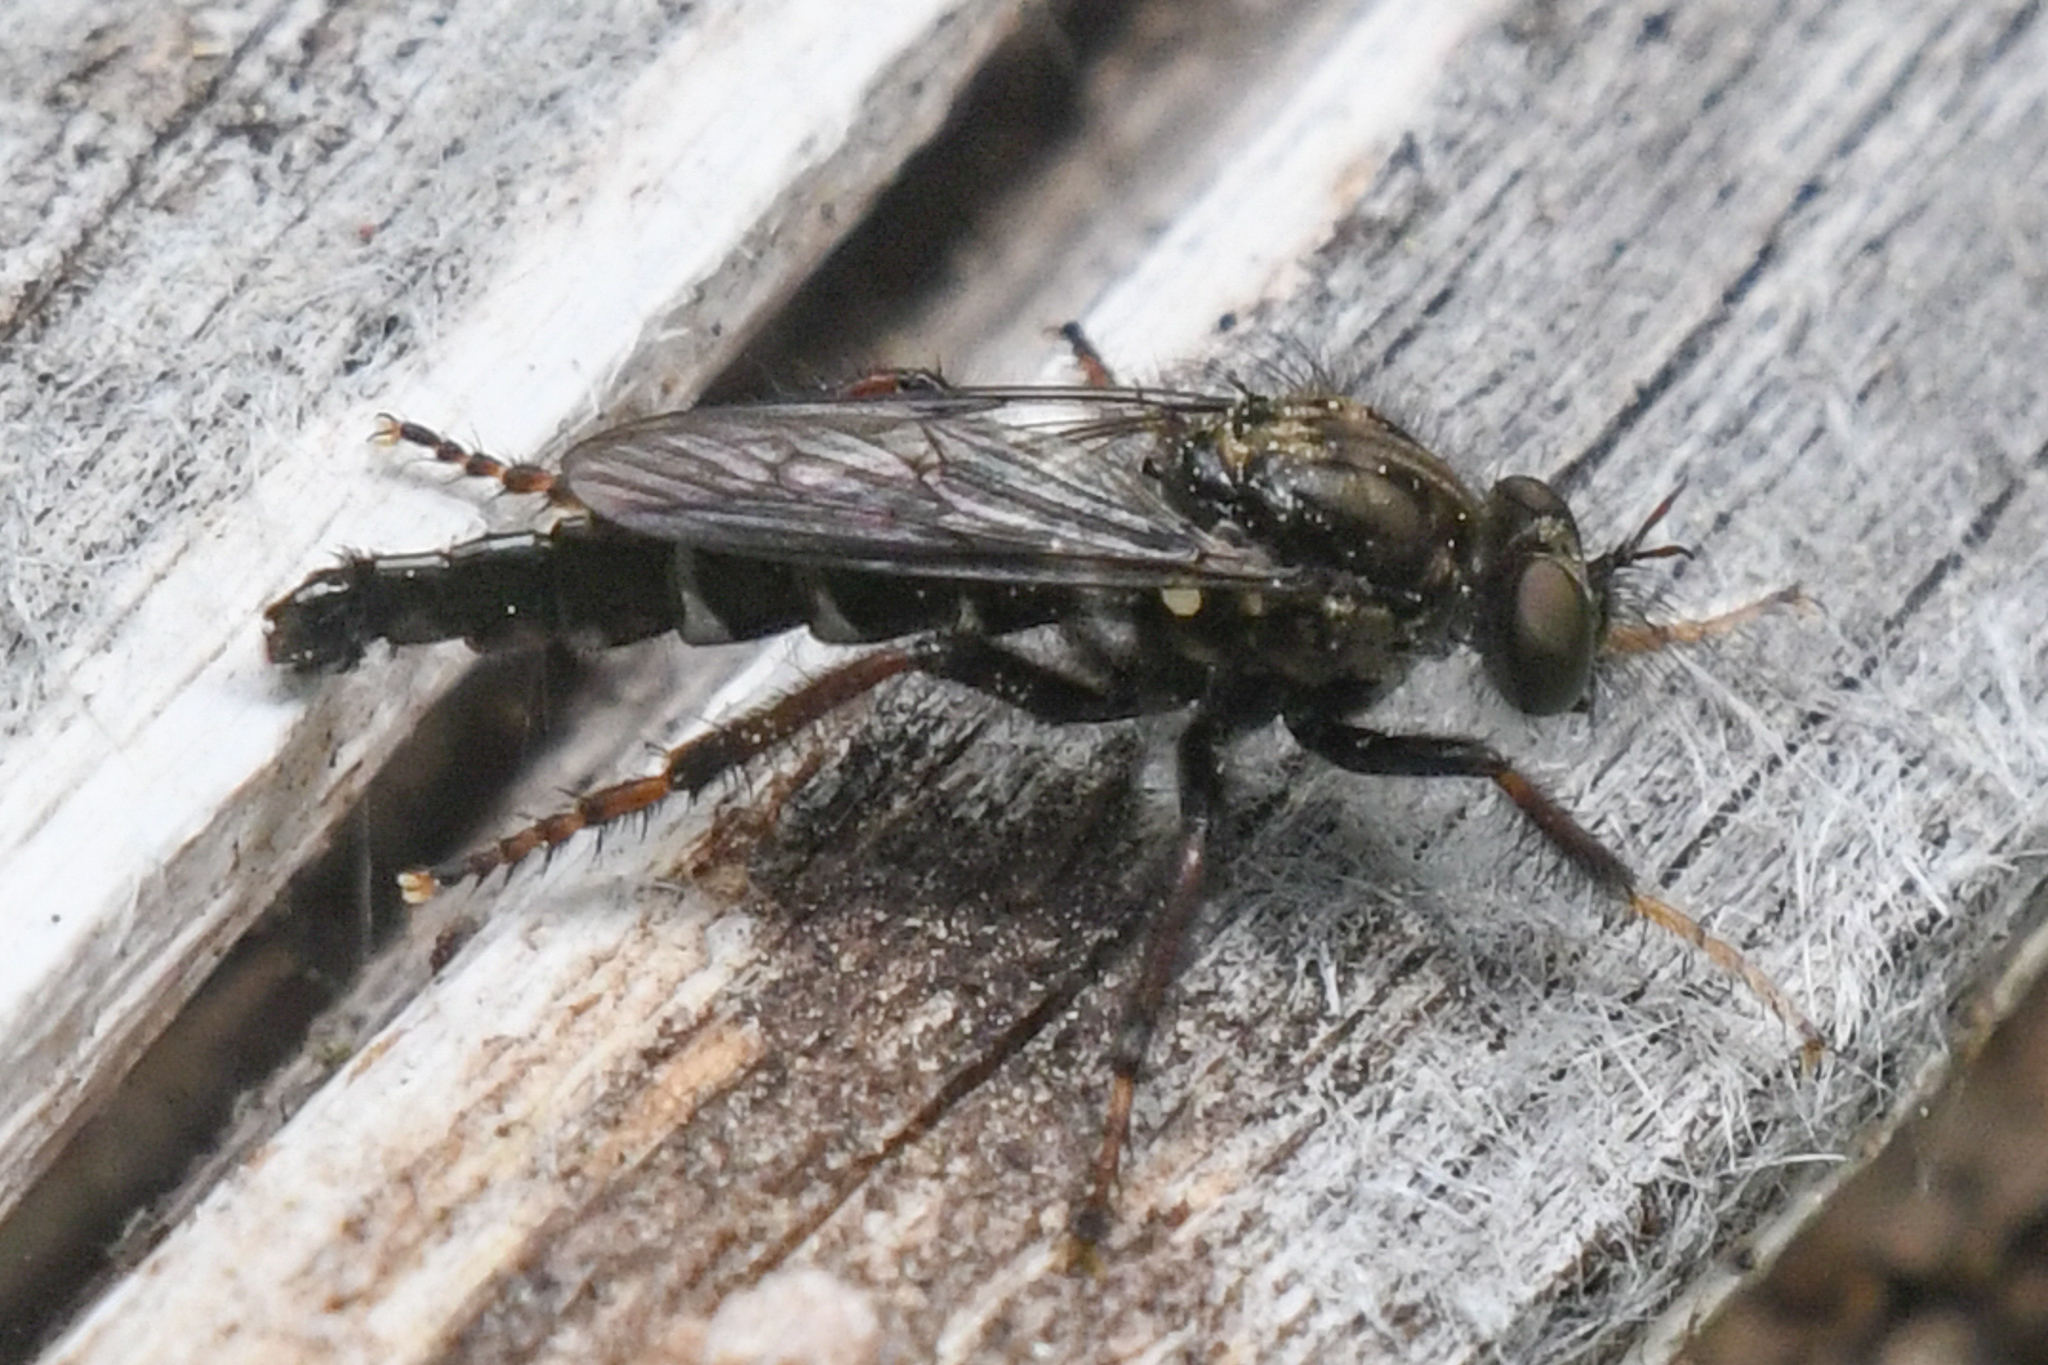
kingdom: Animalia
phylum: Arthropoda
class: Insecta
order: Diptera
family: Asilidae
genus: Cyrtopogon
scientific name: Cyrtopogon glarealis
